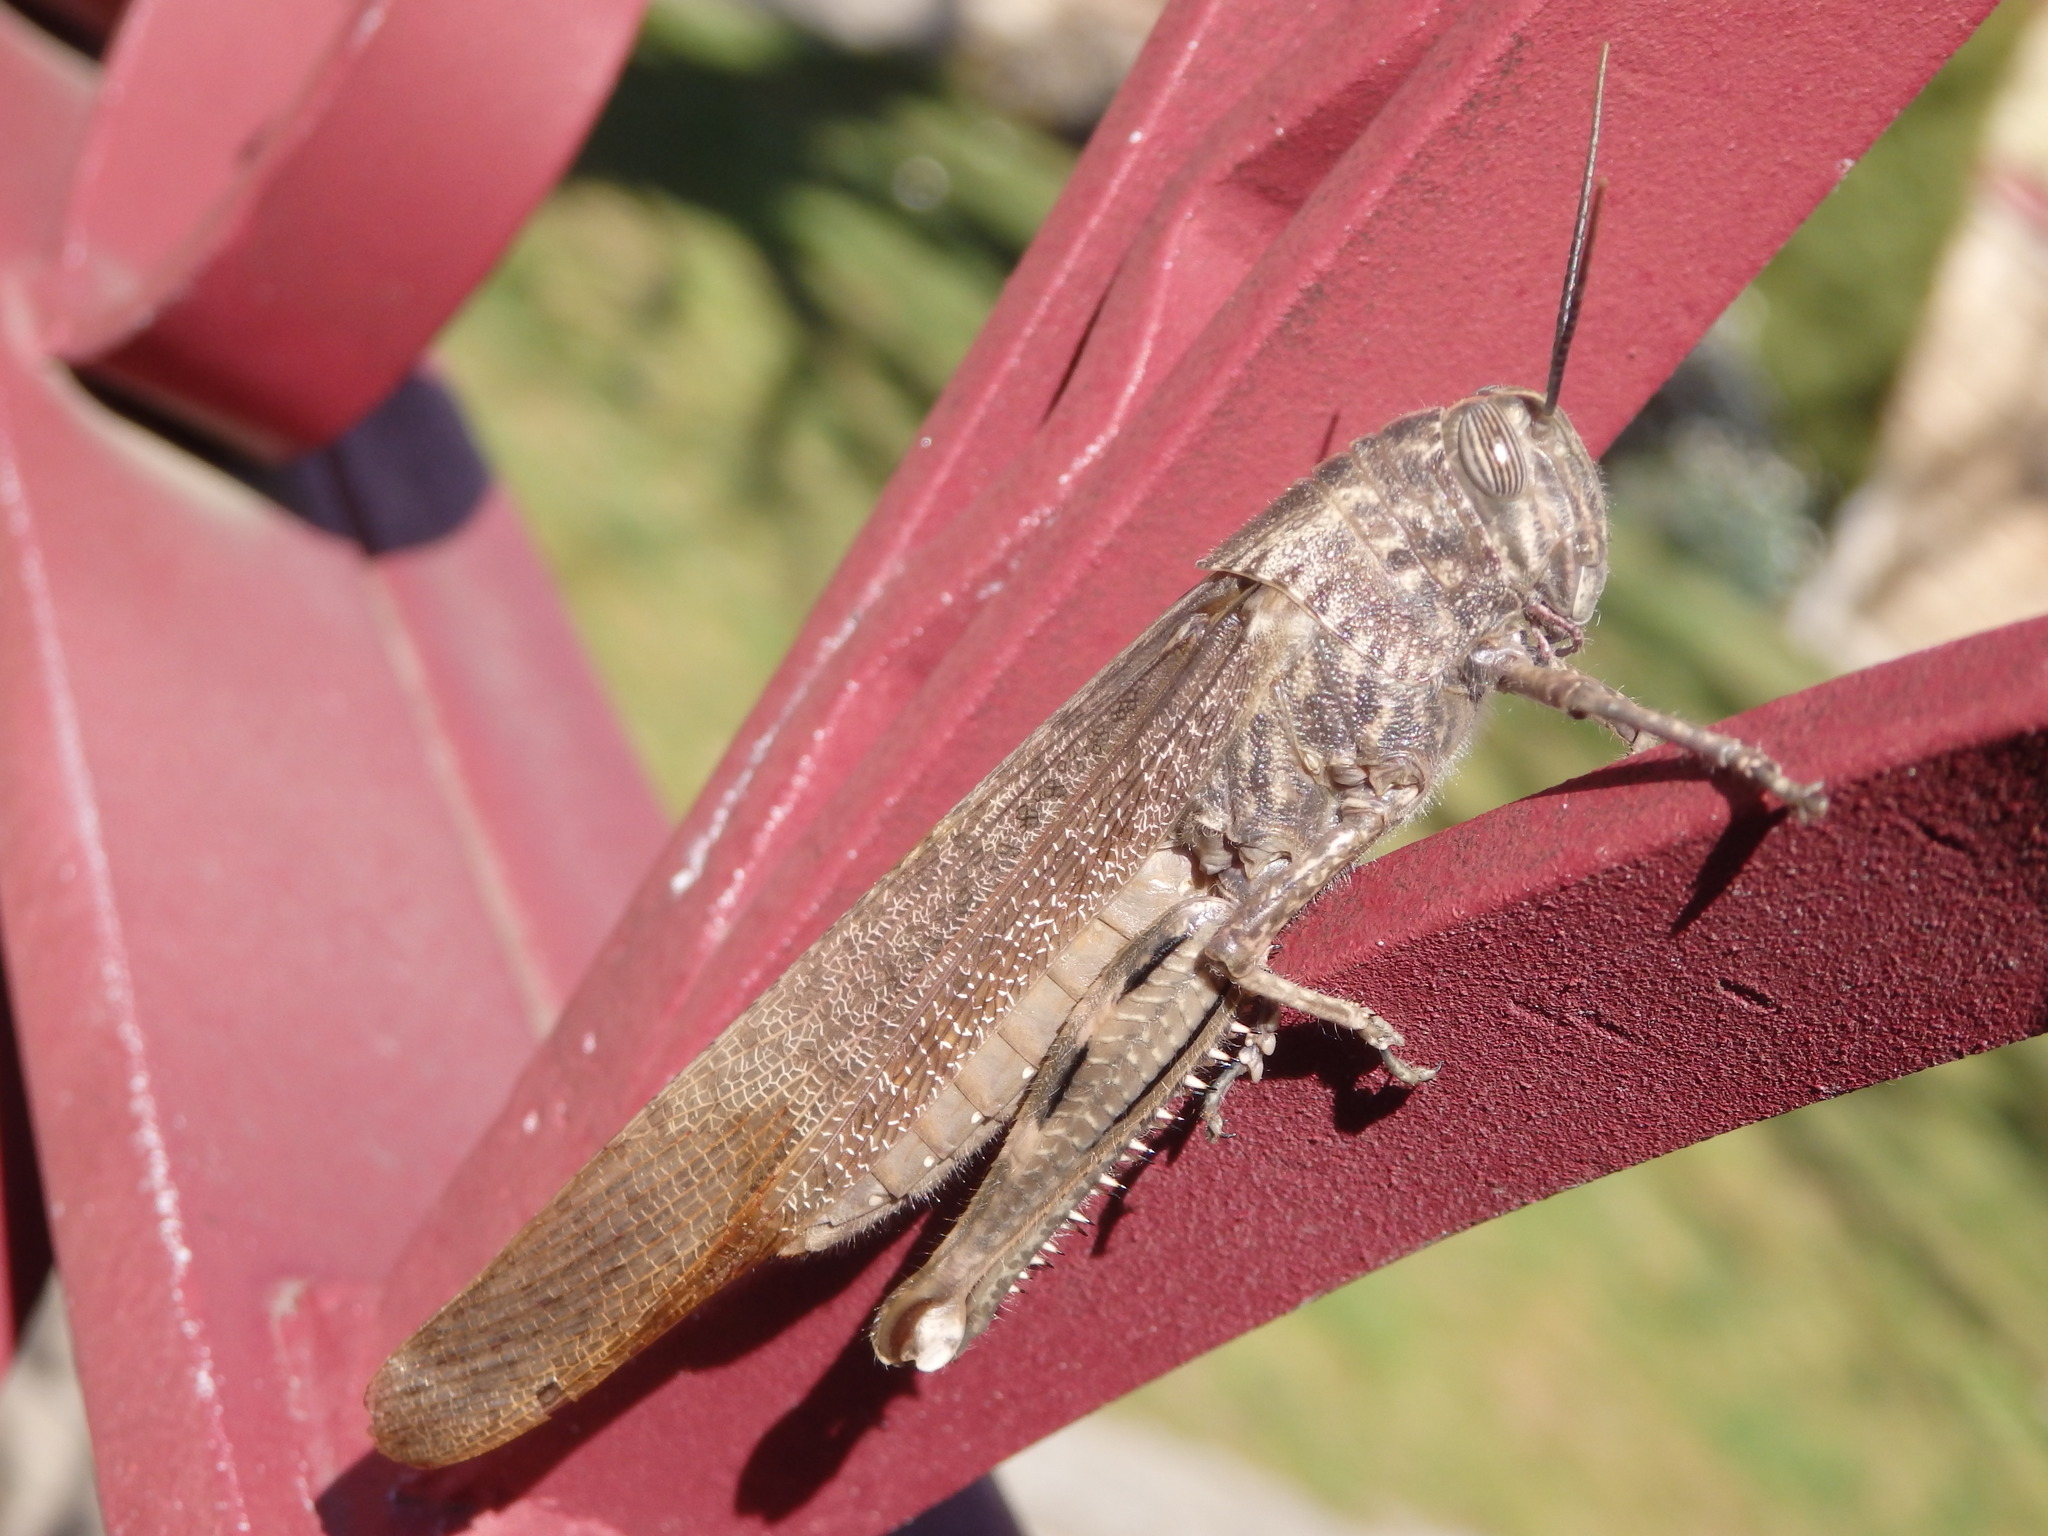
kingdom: Animalia
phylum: Arthropoda
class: Insecta
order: Orthoptera
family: Acrididae
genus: Anacridium
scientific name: Anacridium aegyptium
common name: Egyptian grasshopper
